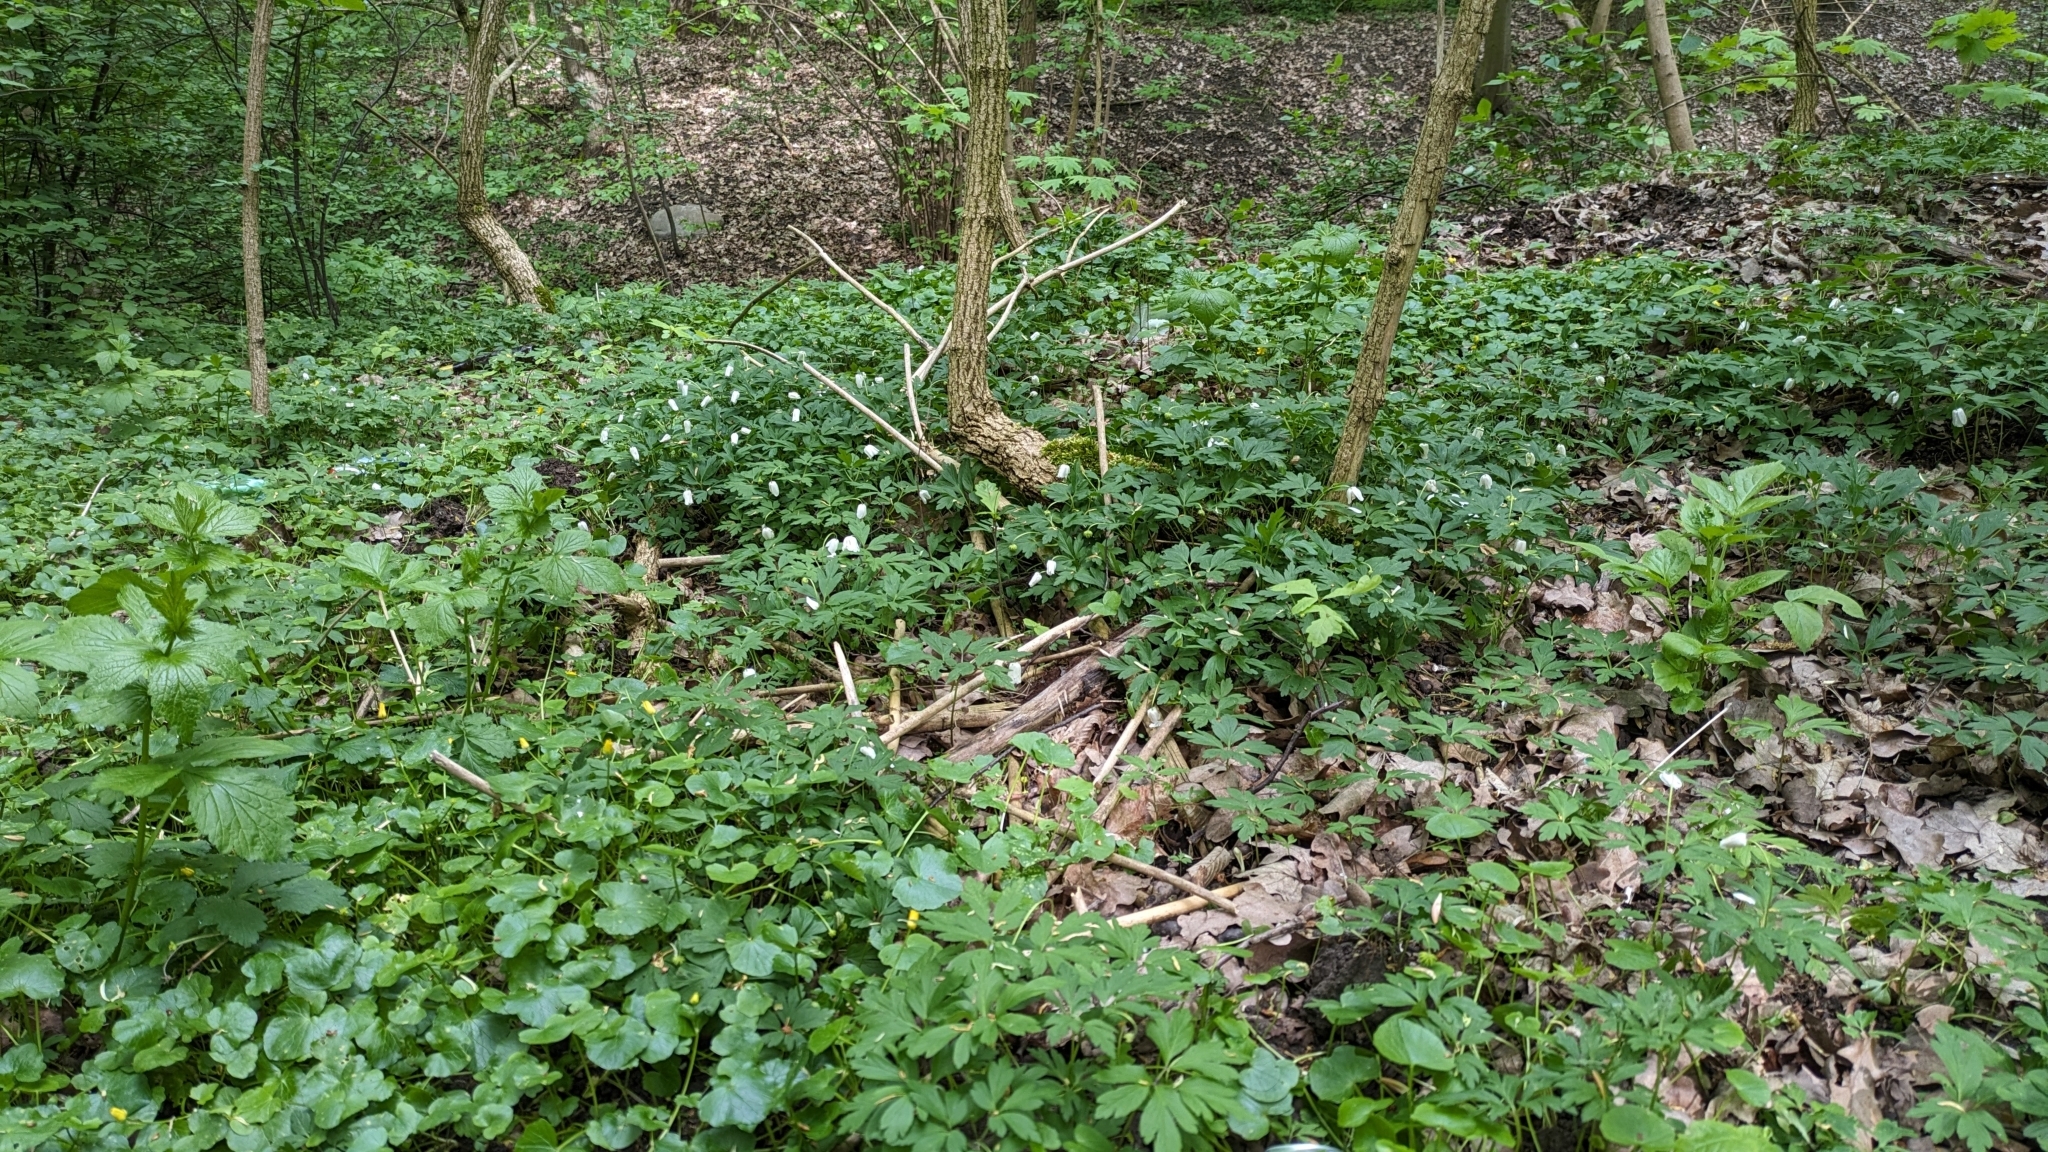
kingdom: Plantae
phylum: Tracheophyta
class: Magnoliopsida
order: Ranunculales
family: Ranunculaceae
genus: Anemone
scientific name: Anemone nemorosa
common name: Wood anemone
